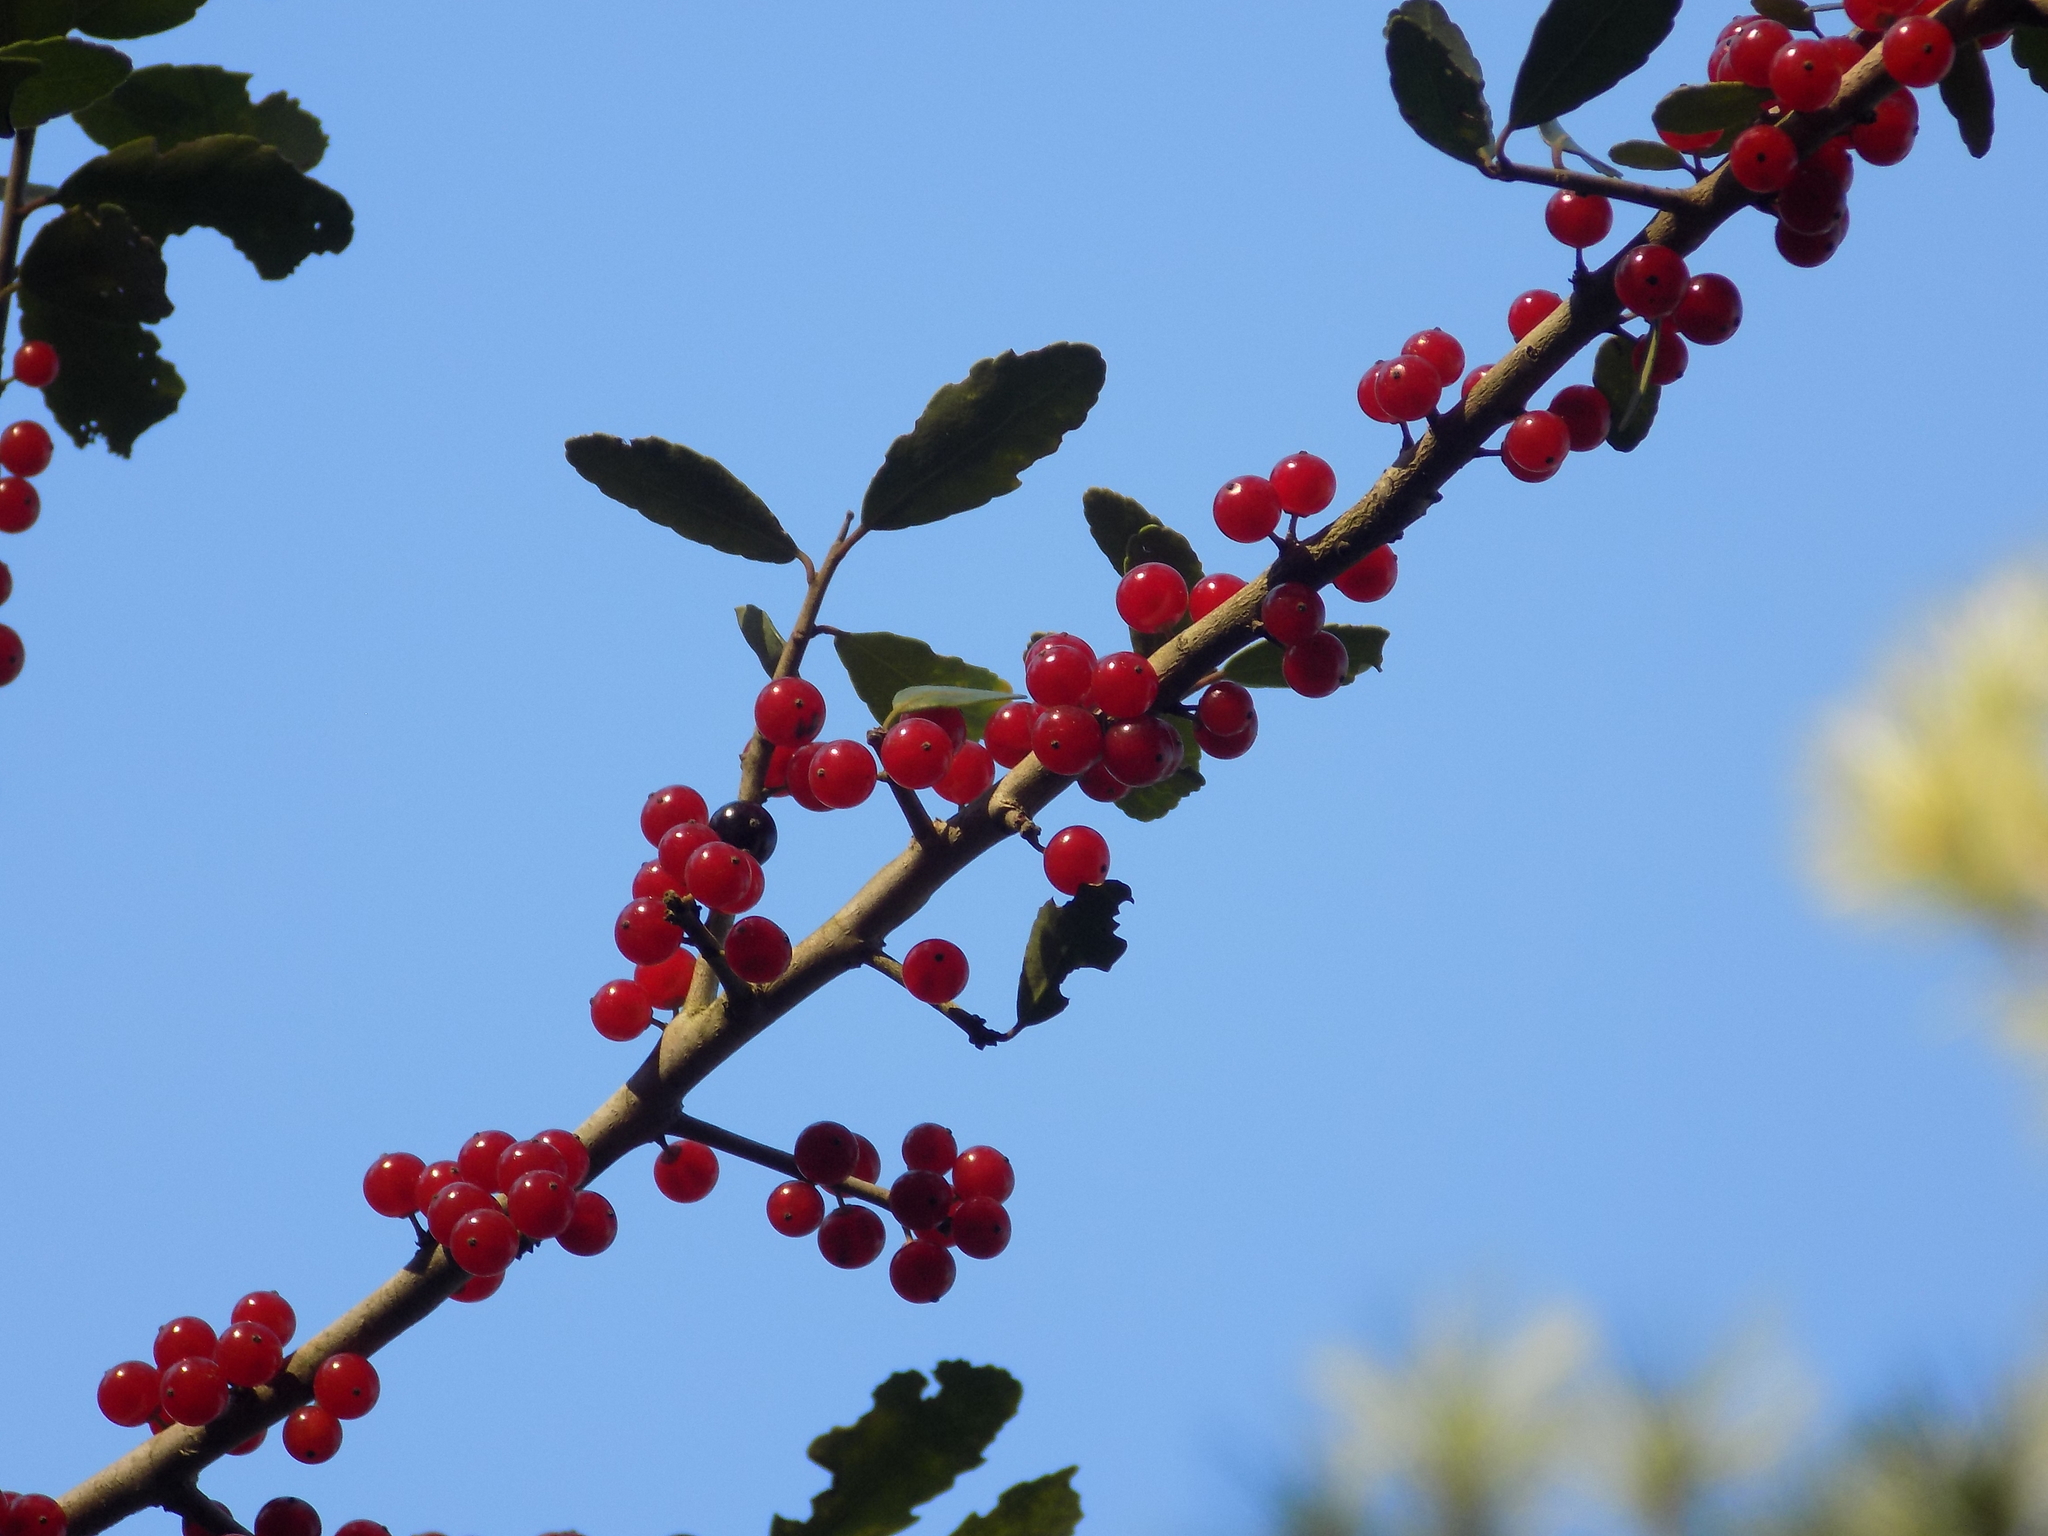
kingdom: Plantae
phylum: Tracheophyta
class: Magnoliopsida
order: Aquifoliales
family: Aquifoliaceae
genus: Ilex
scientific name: Ilex vomitoria
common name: Yaupon holly
